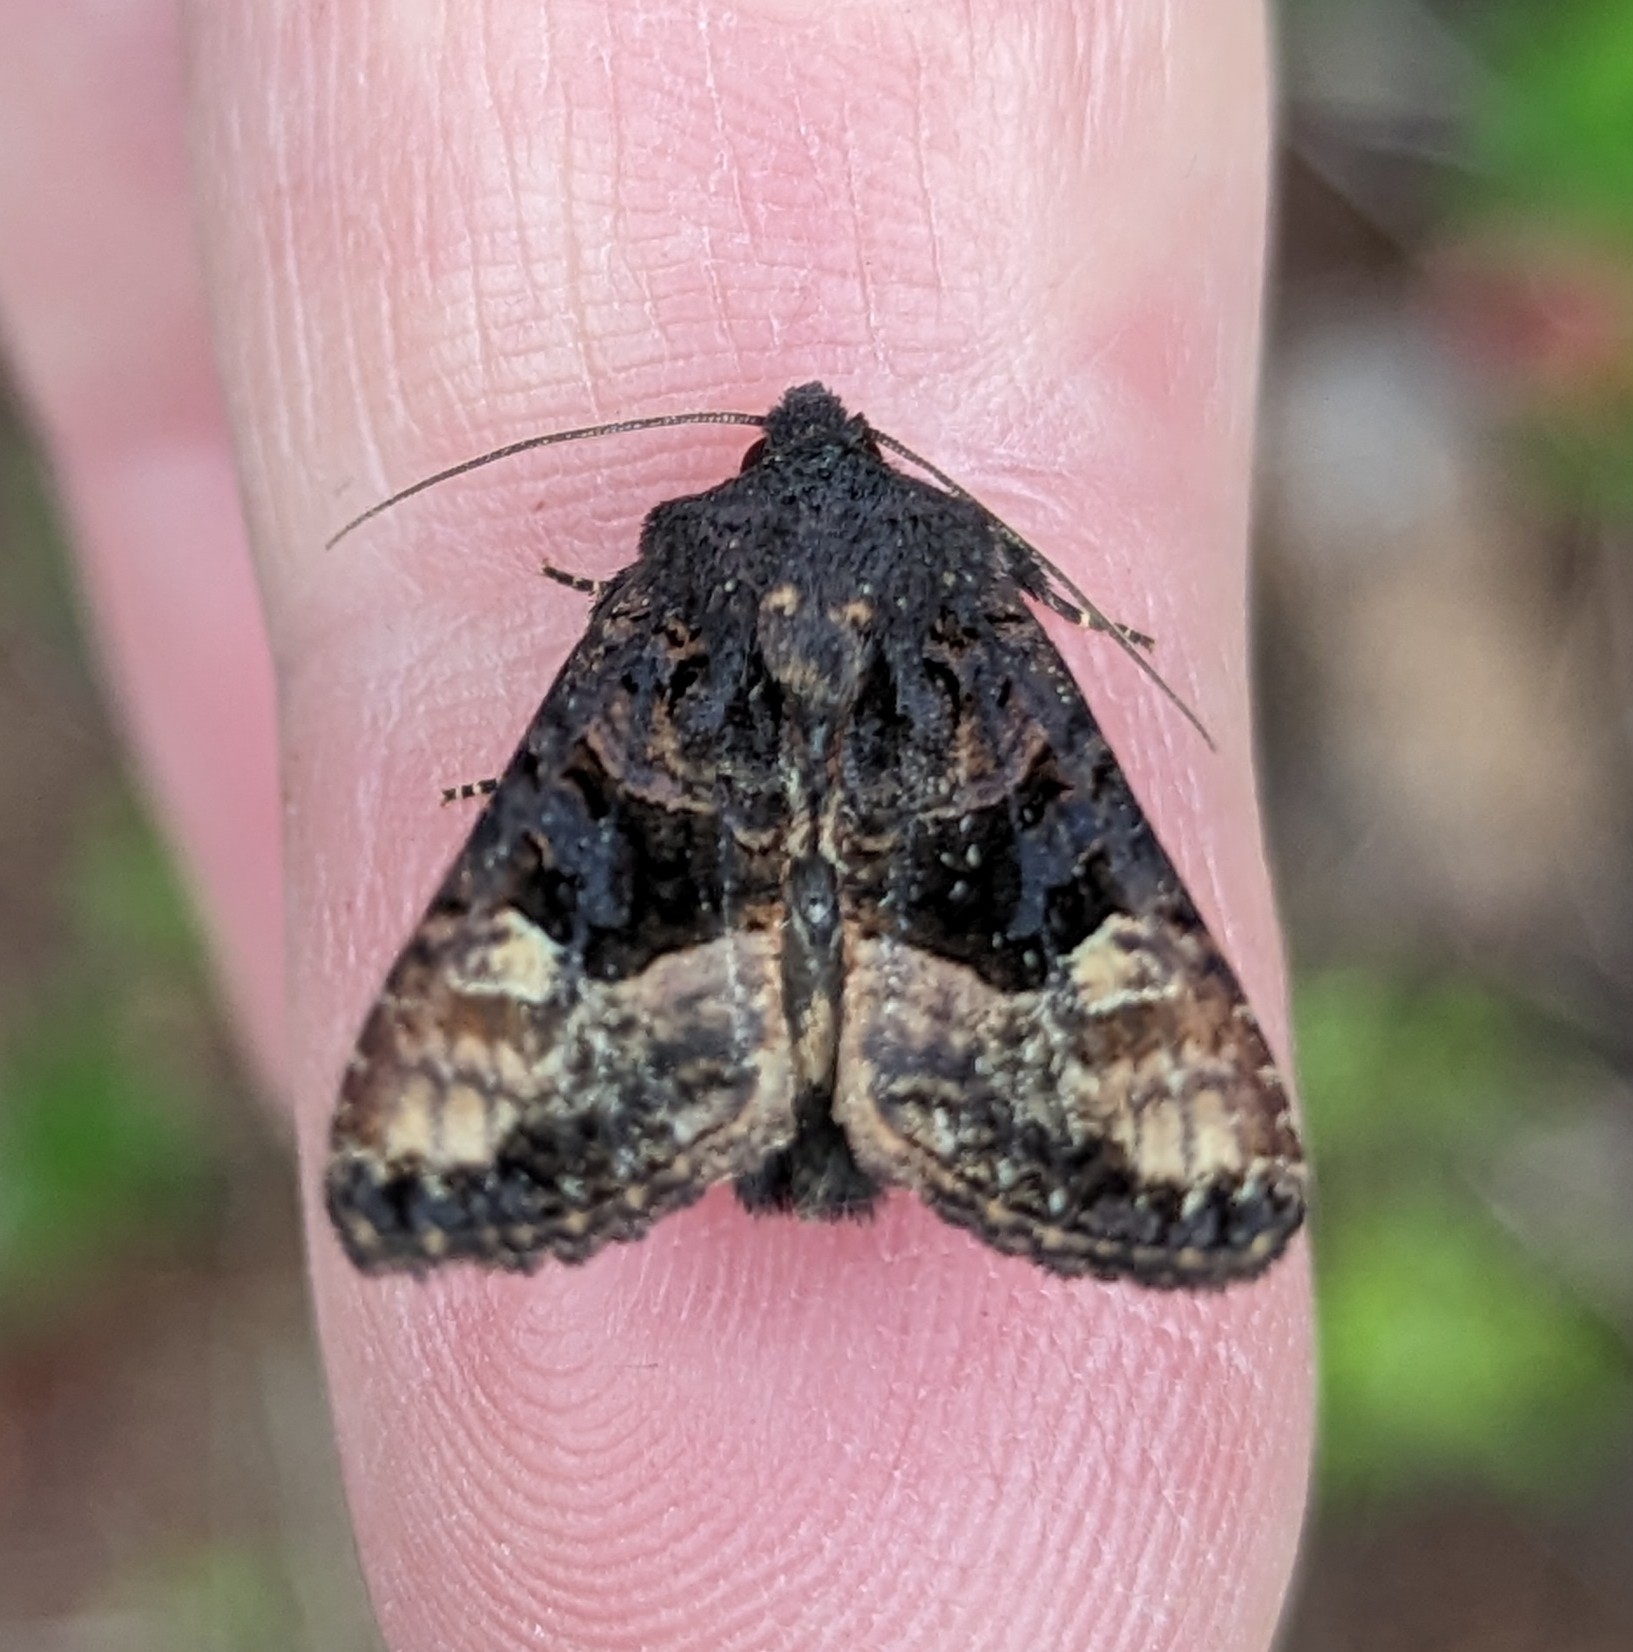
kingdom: Animalia
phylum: Arthropoda
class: Insecta
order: Lepidoptera
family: Noctuidae
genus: Euplexia
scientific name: Euplexia benesimilis
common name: American angle shades
